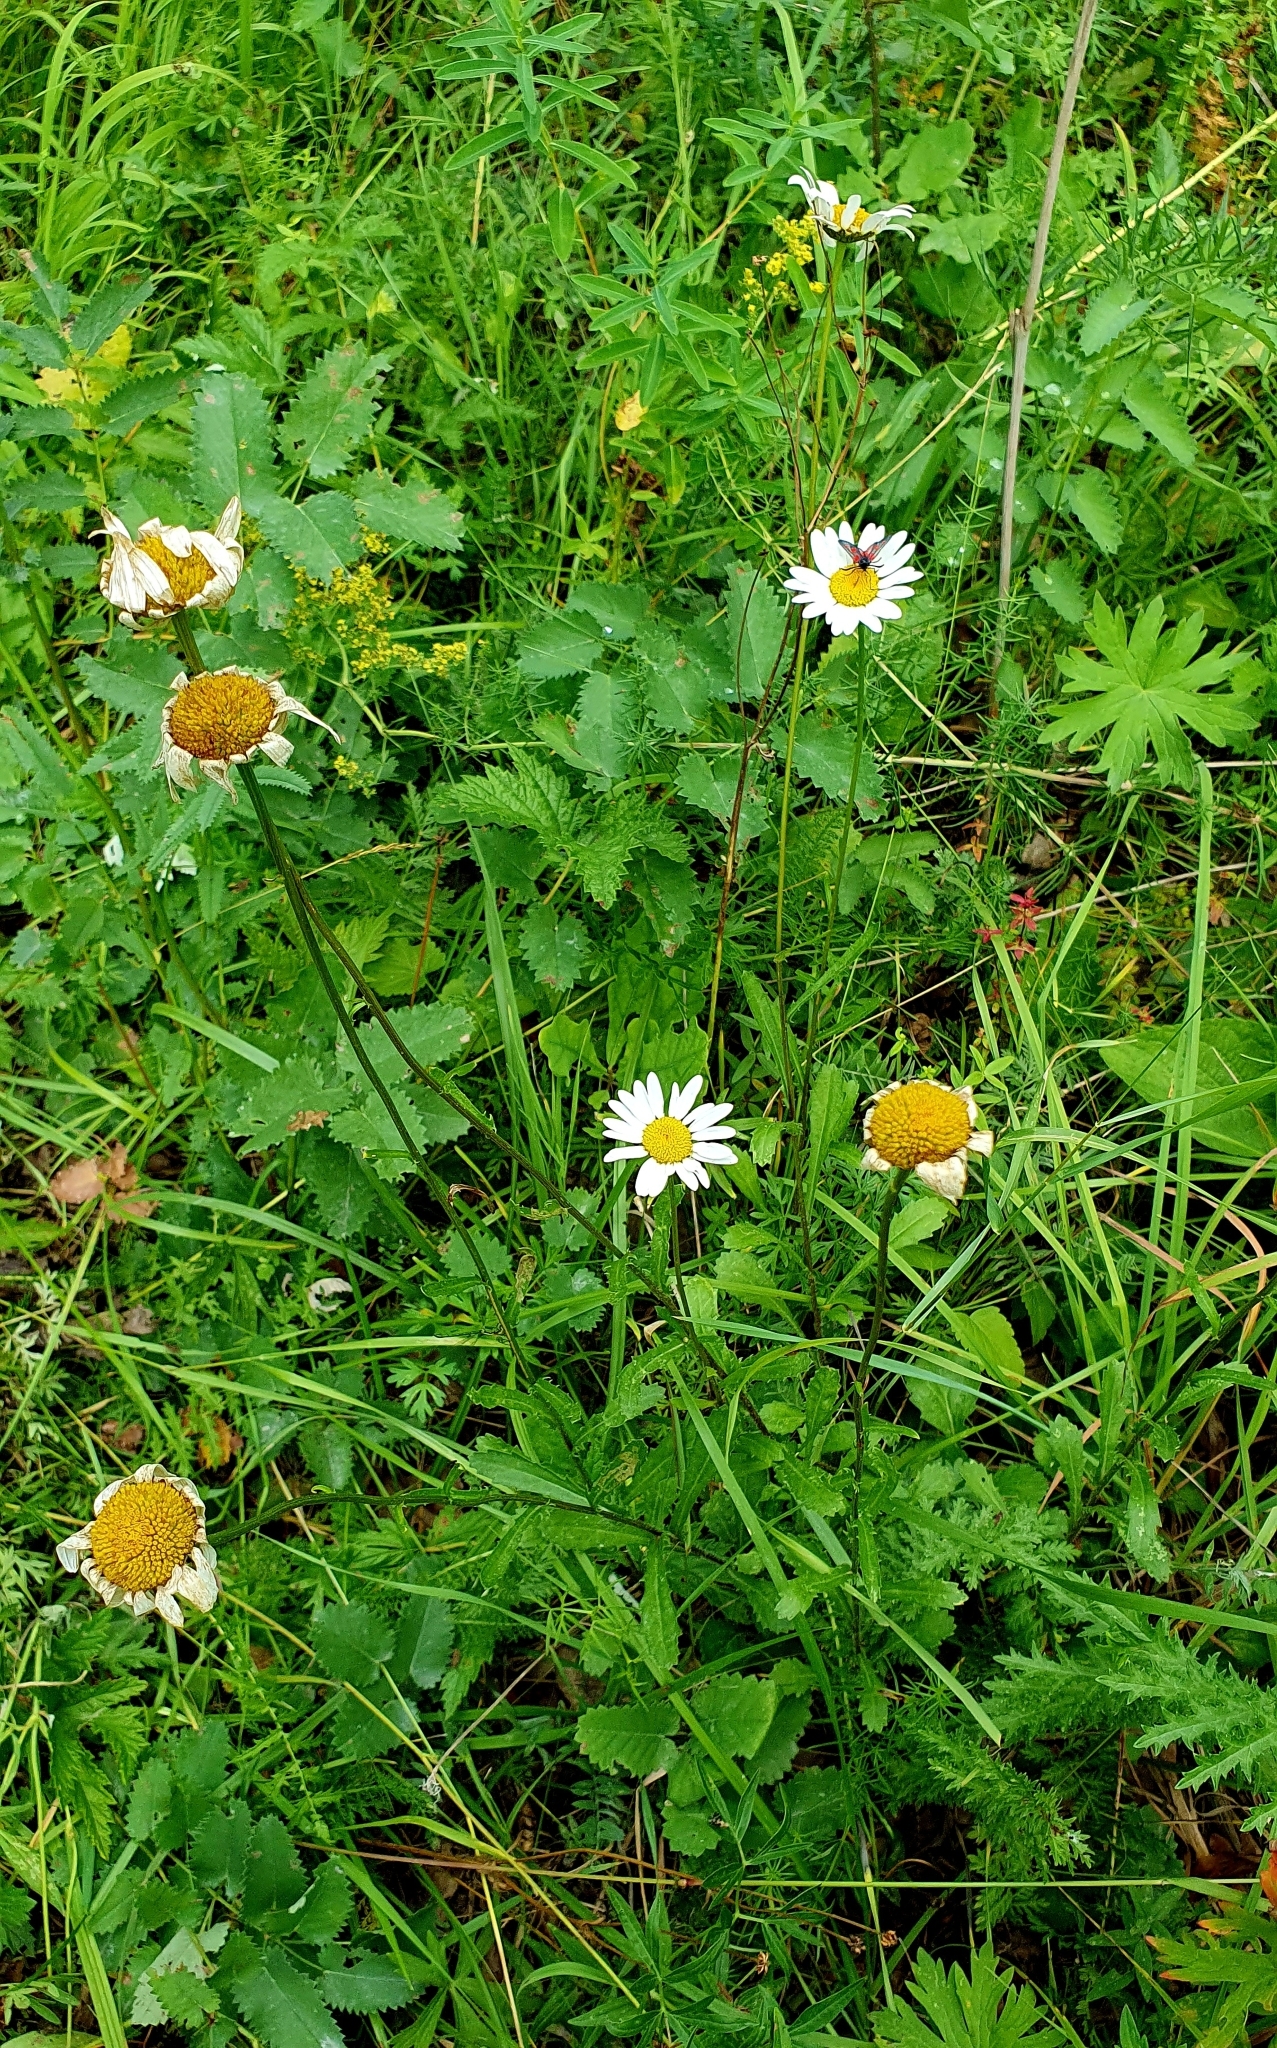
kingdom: Plantae
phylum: Tracheophyta
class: Magnoliopsida
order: Asterales
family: Asteraceae
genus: Leucanthemum
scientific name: Leucanthemum vulgare
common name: Oxeye daisy
